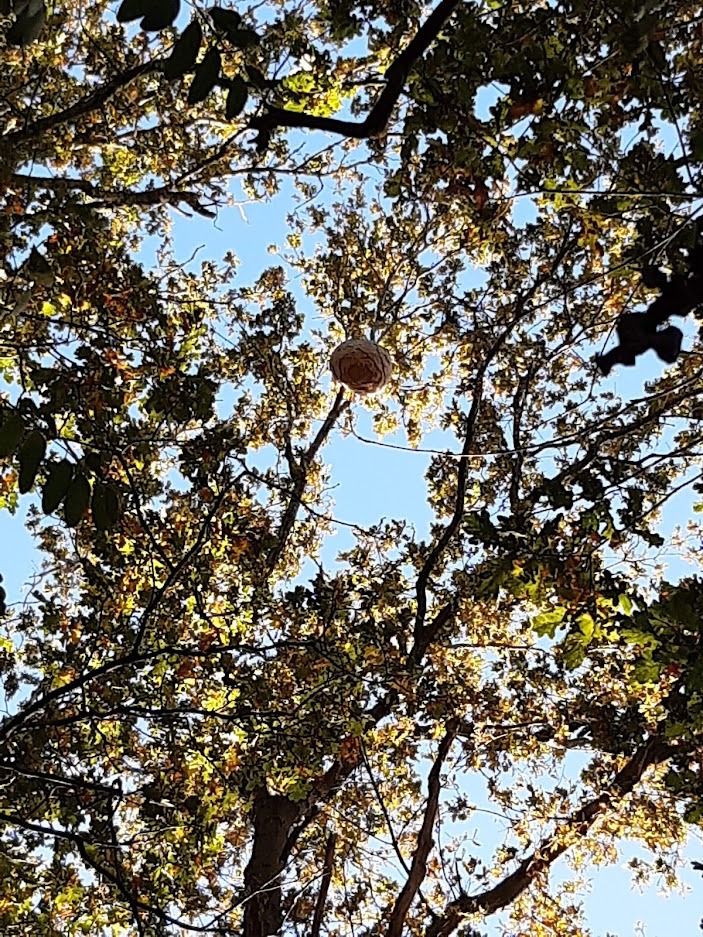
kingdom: Animalia
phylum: Arthropoda
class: Insecta
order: Hymenoptera
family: Vespidae
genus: Vespa
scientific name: Vespa velutina
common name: Asian hornet
